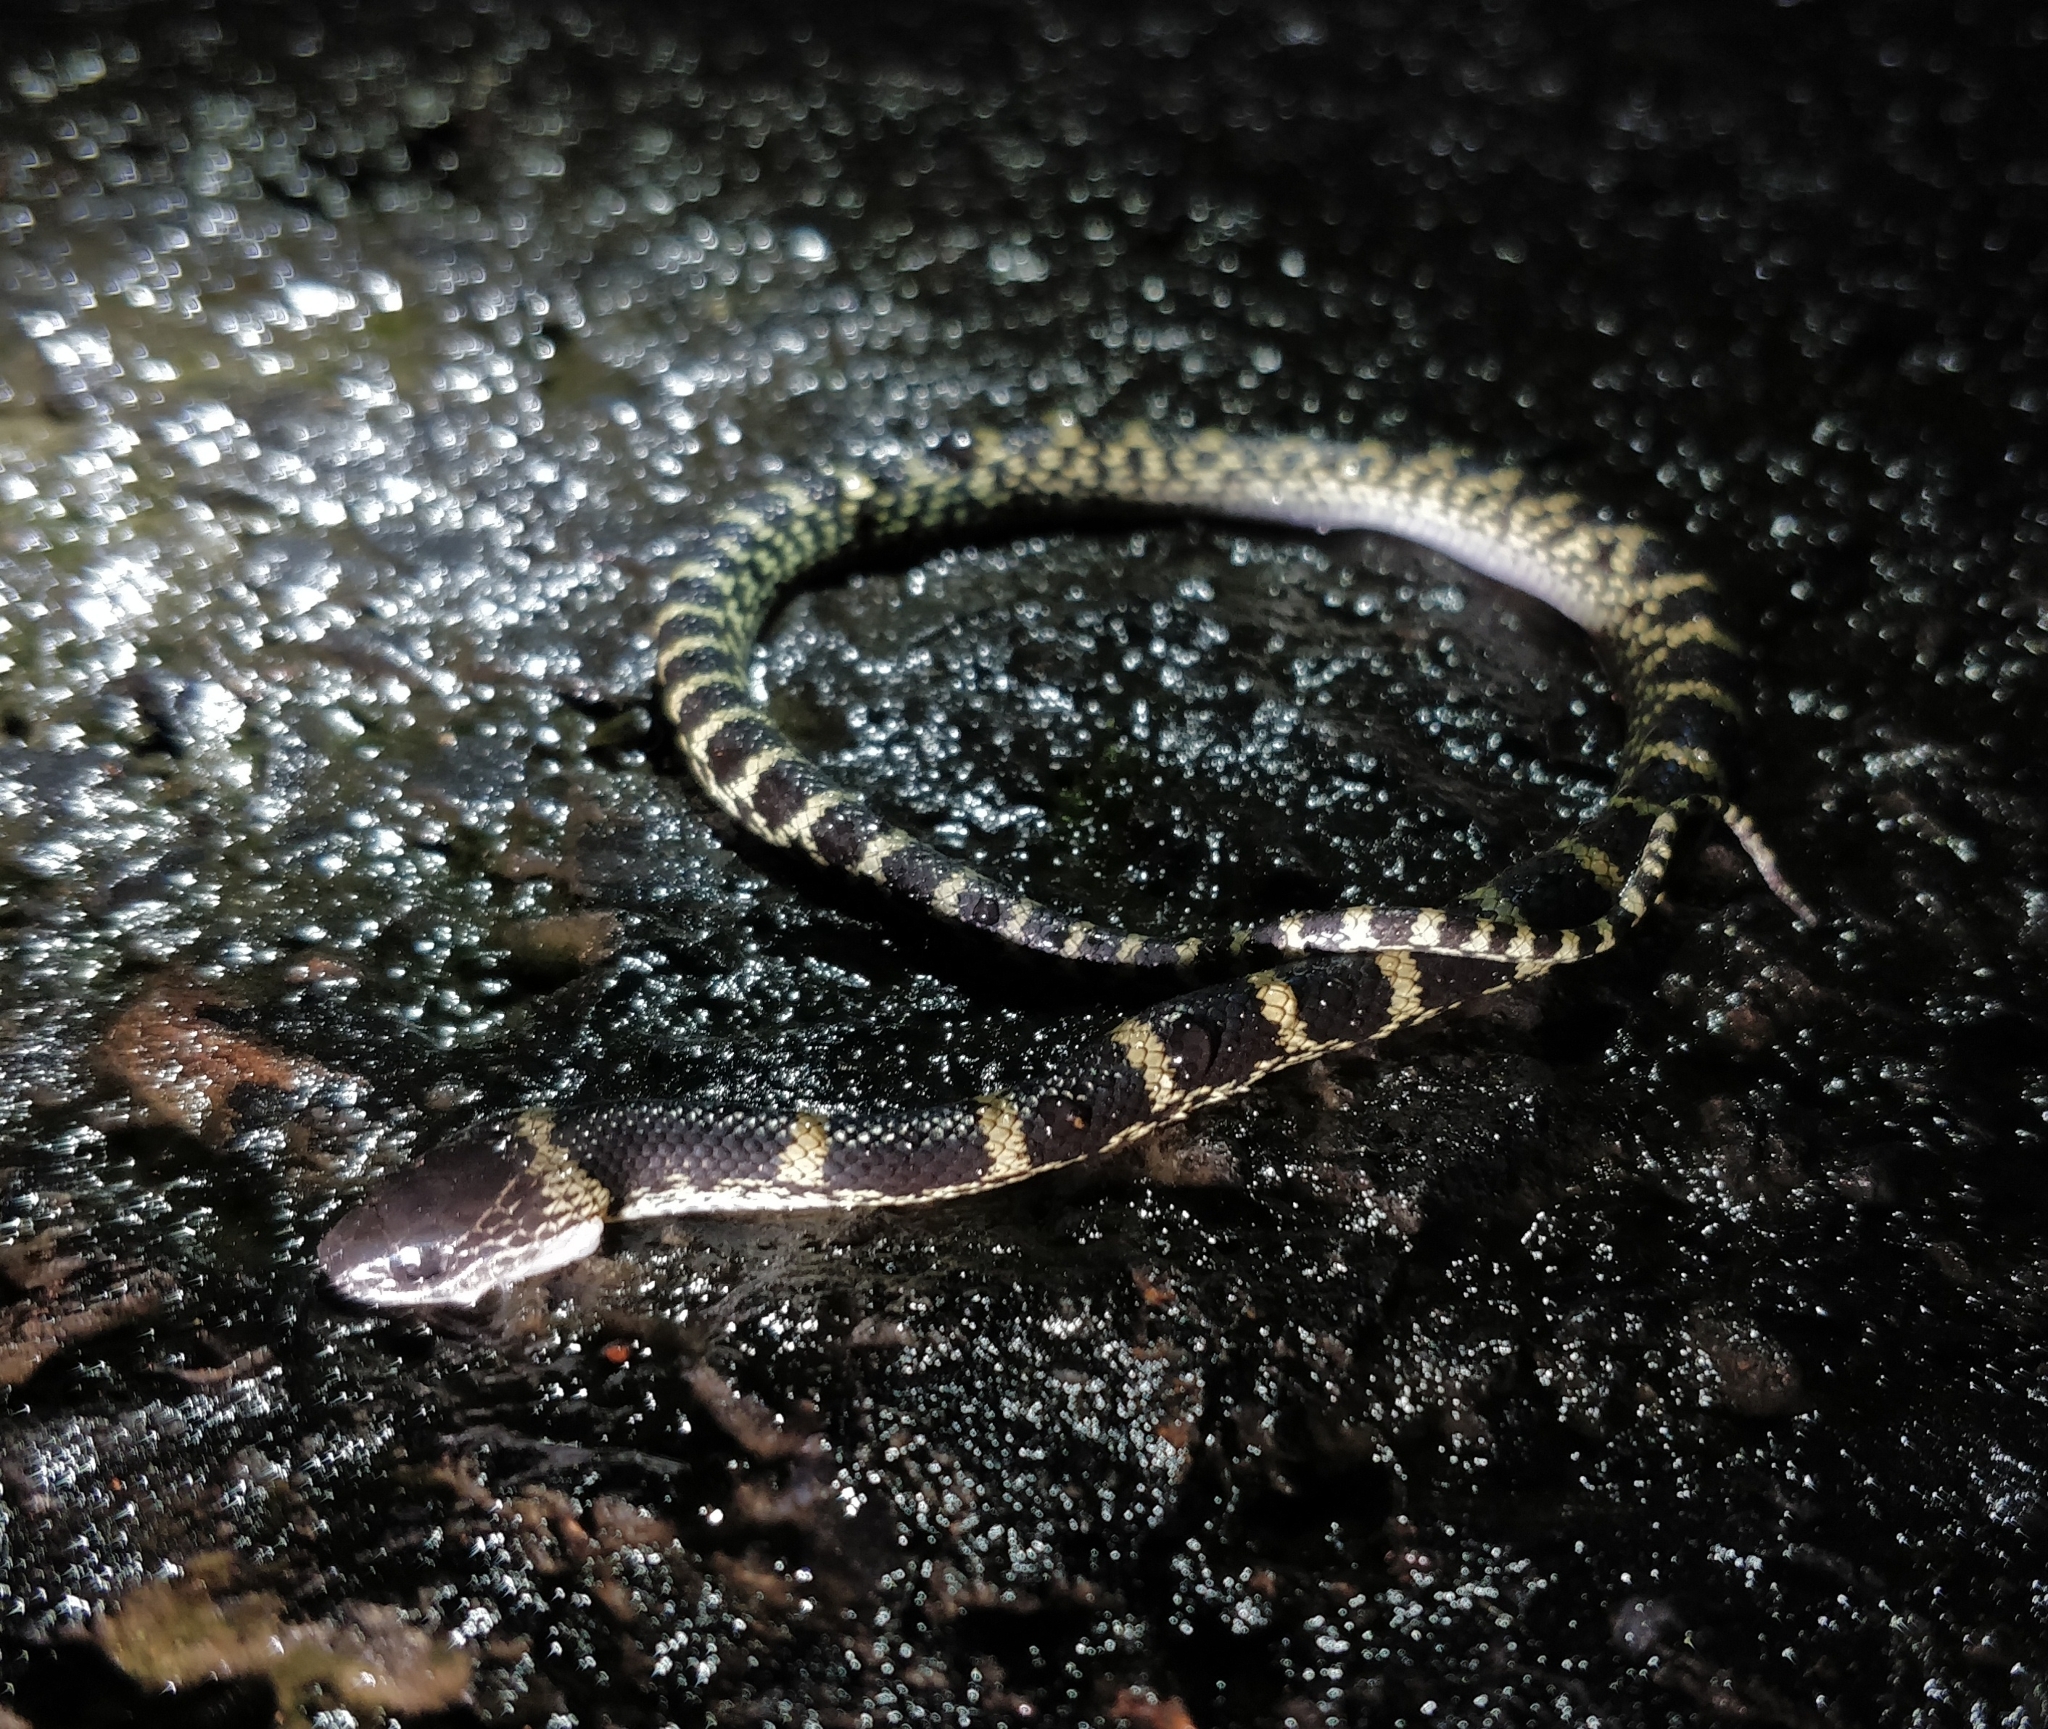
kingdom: Animalia
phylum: Chordata
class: Squamata
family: Colubridae
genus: Lycodon
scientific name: Lycodon travancoricus
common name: Travancore wolf snake
